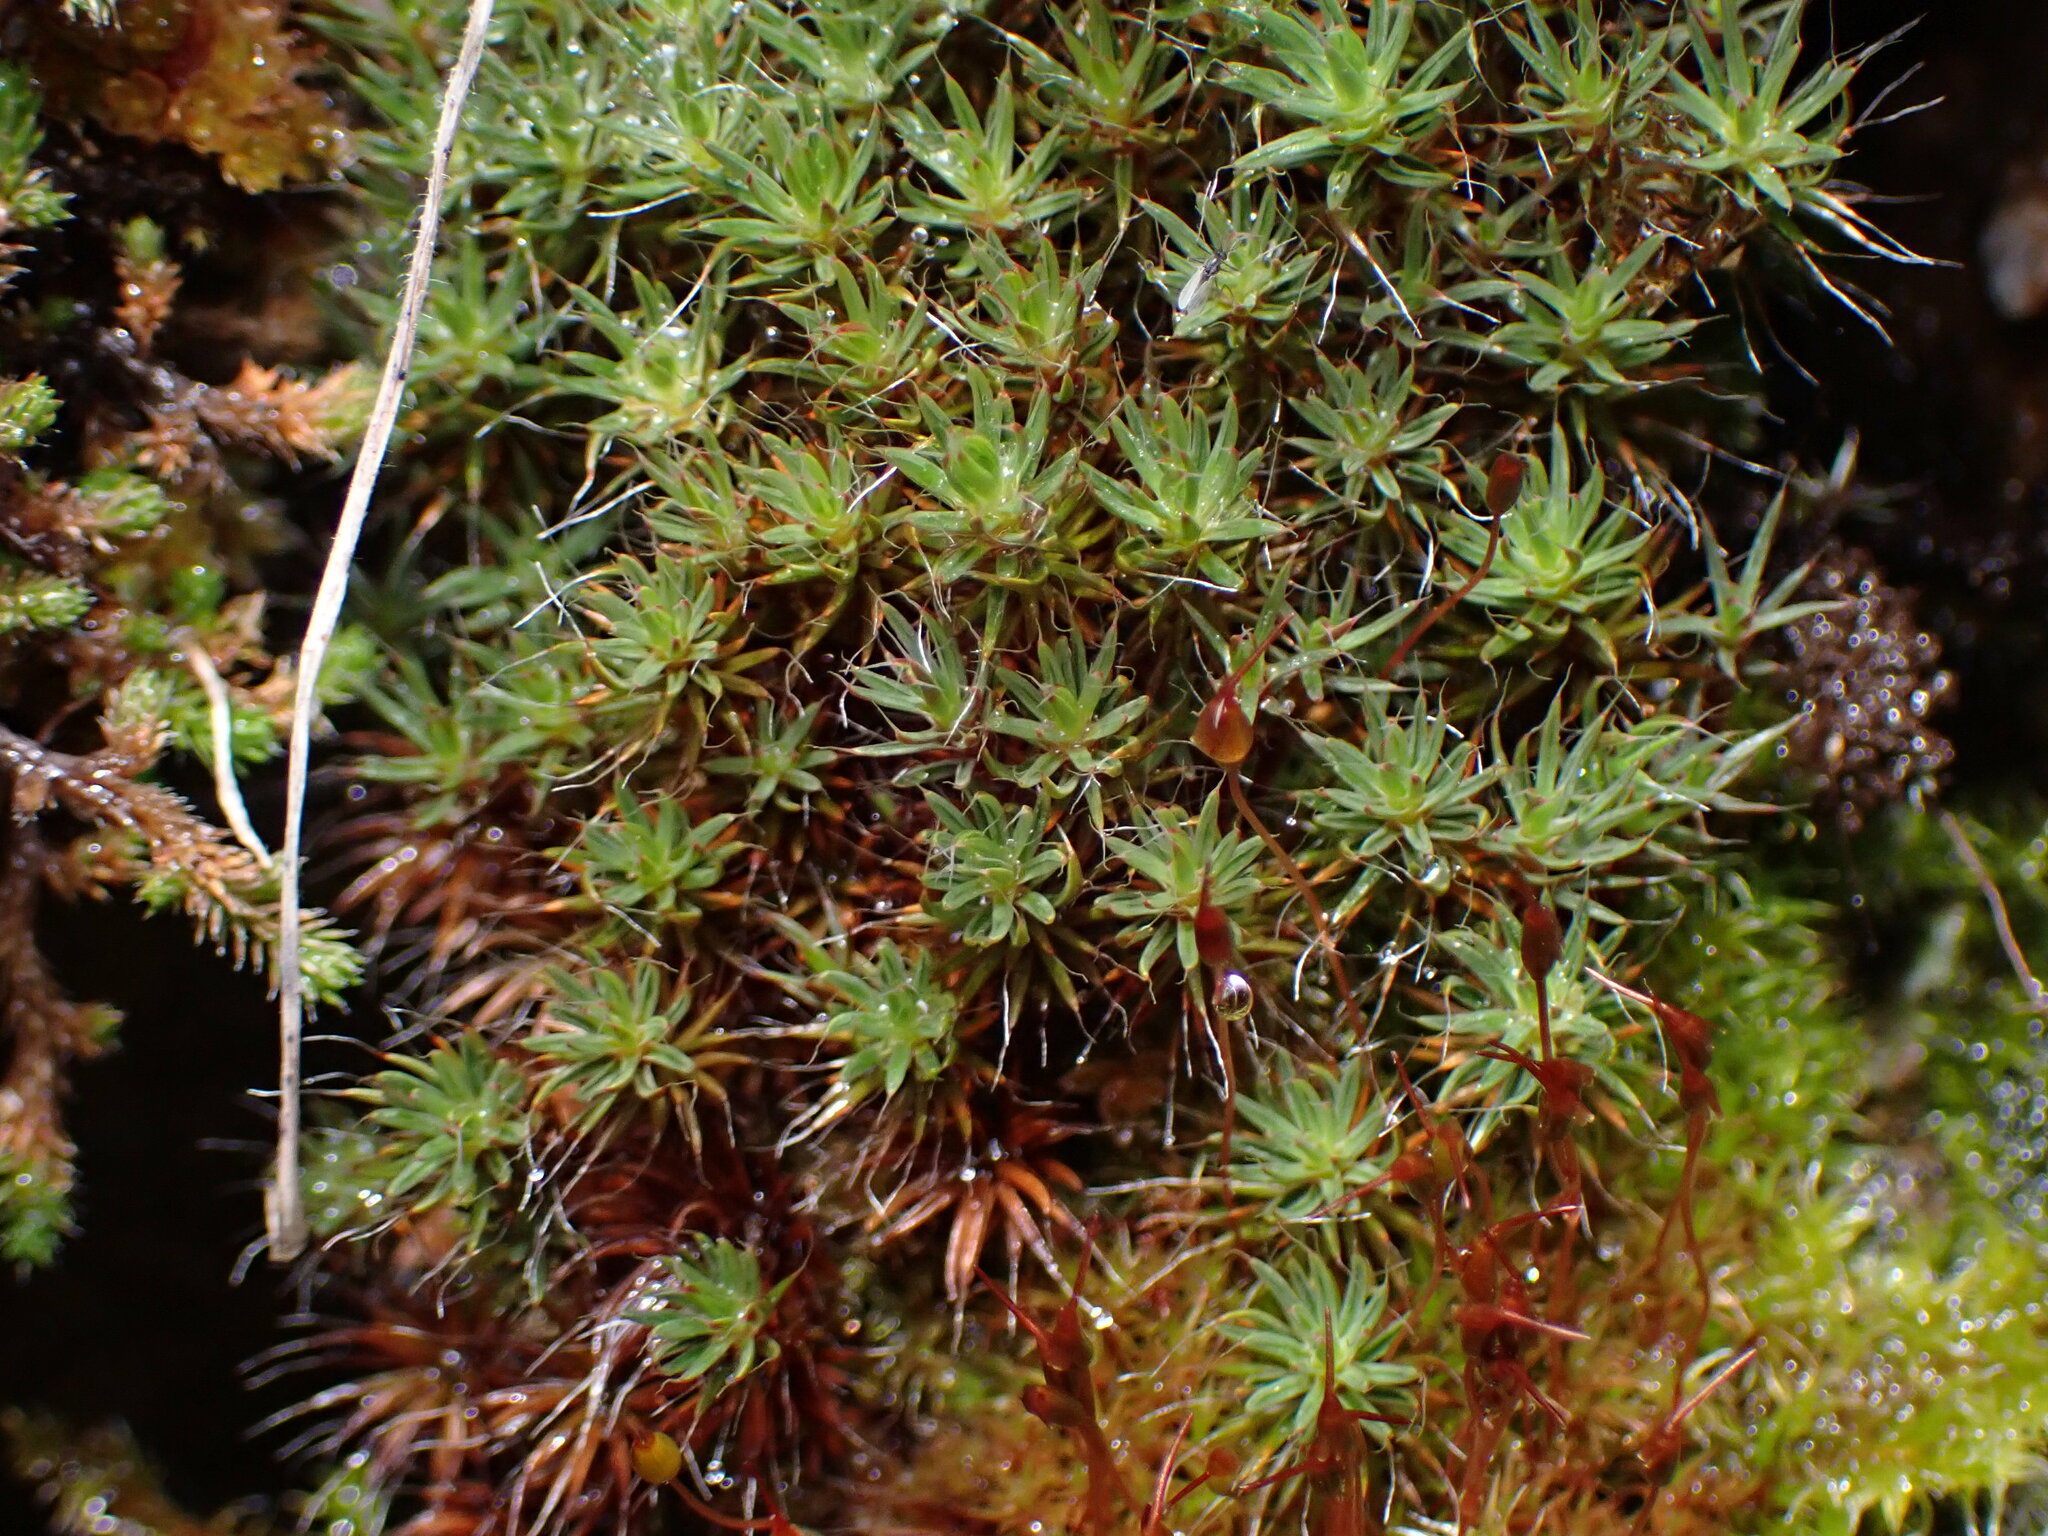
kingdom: Plantae
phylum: Bryophyta
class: Polytrichopsida
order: Polytrichales
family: Polytrichaceae
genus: Polytrichum
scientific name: Polytrichum piliferum
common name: Bristly haircap
